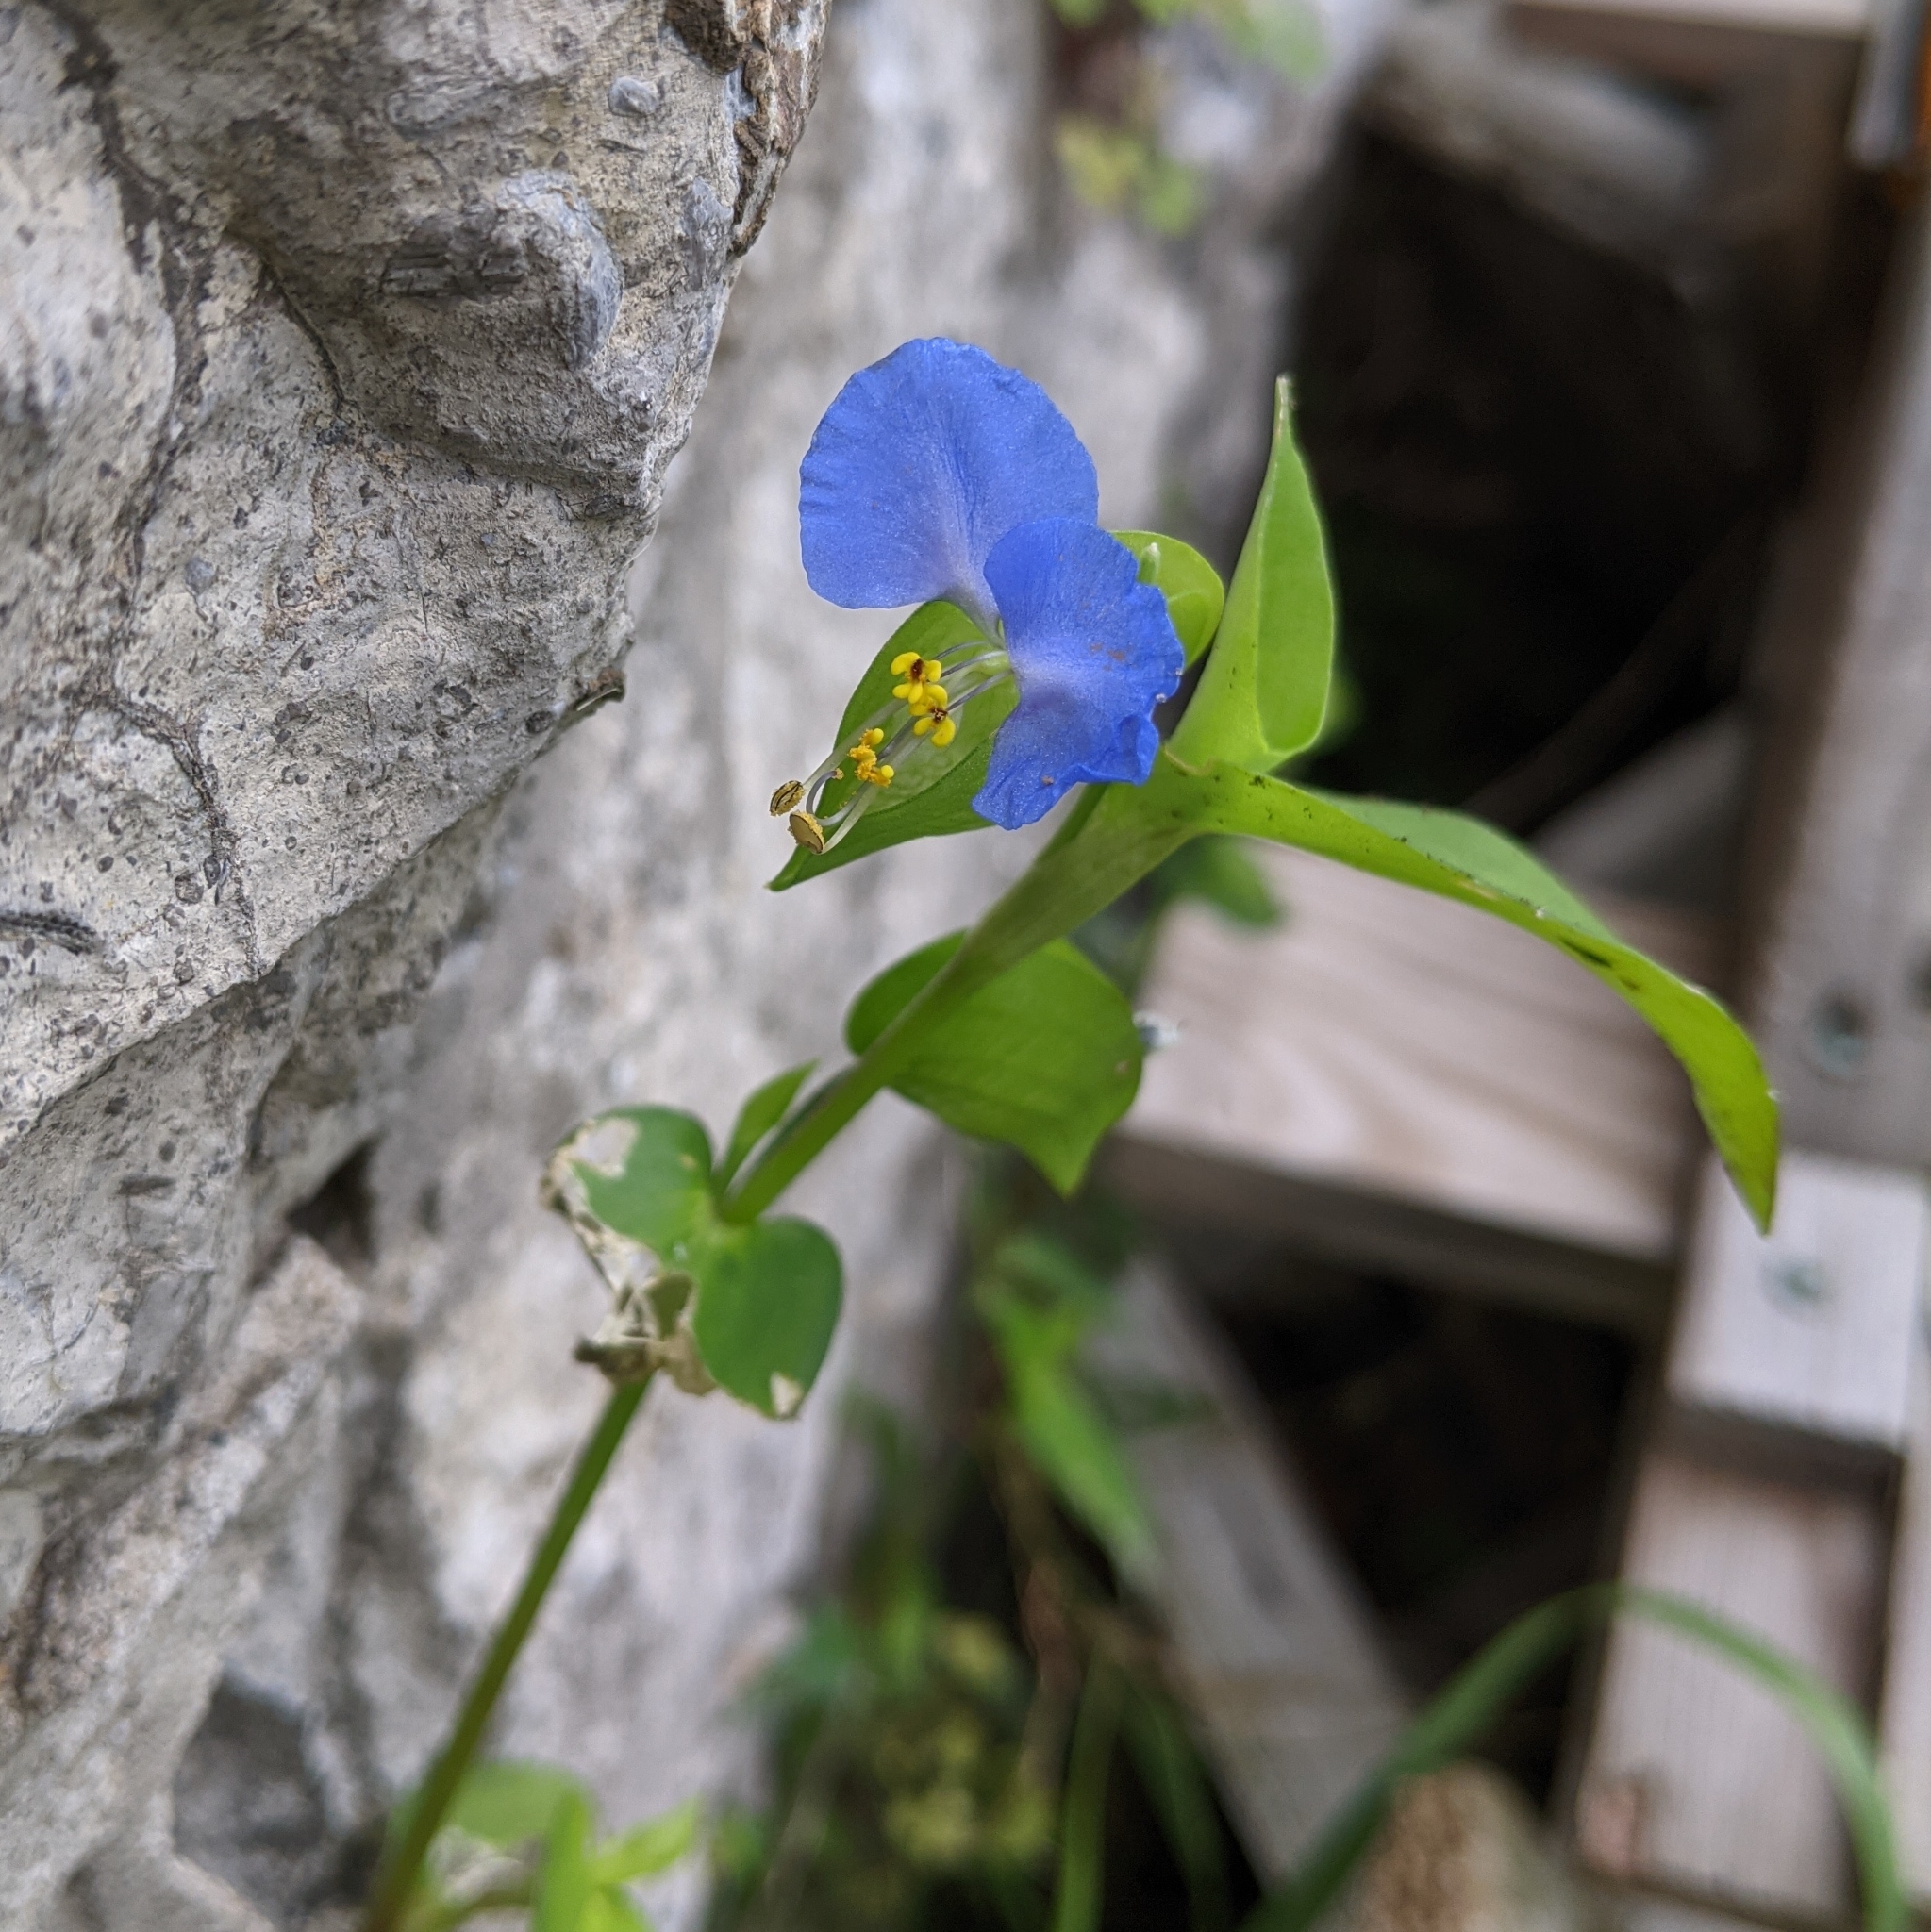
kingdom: Plantae
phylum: Tracheophyta
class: Liliopsida
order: Commelinales
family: Commelinaceae
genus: Commelina
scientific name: Commelina communis
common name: Asiatic dayflower
